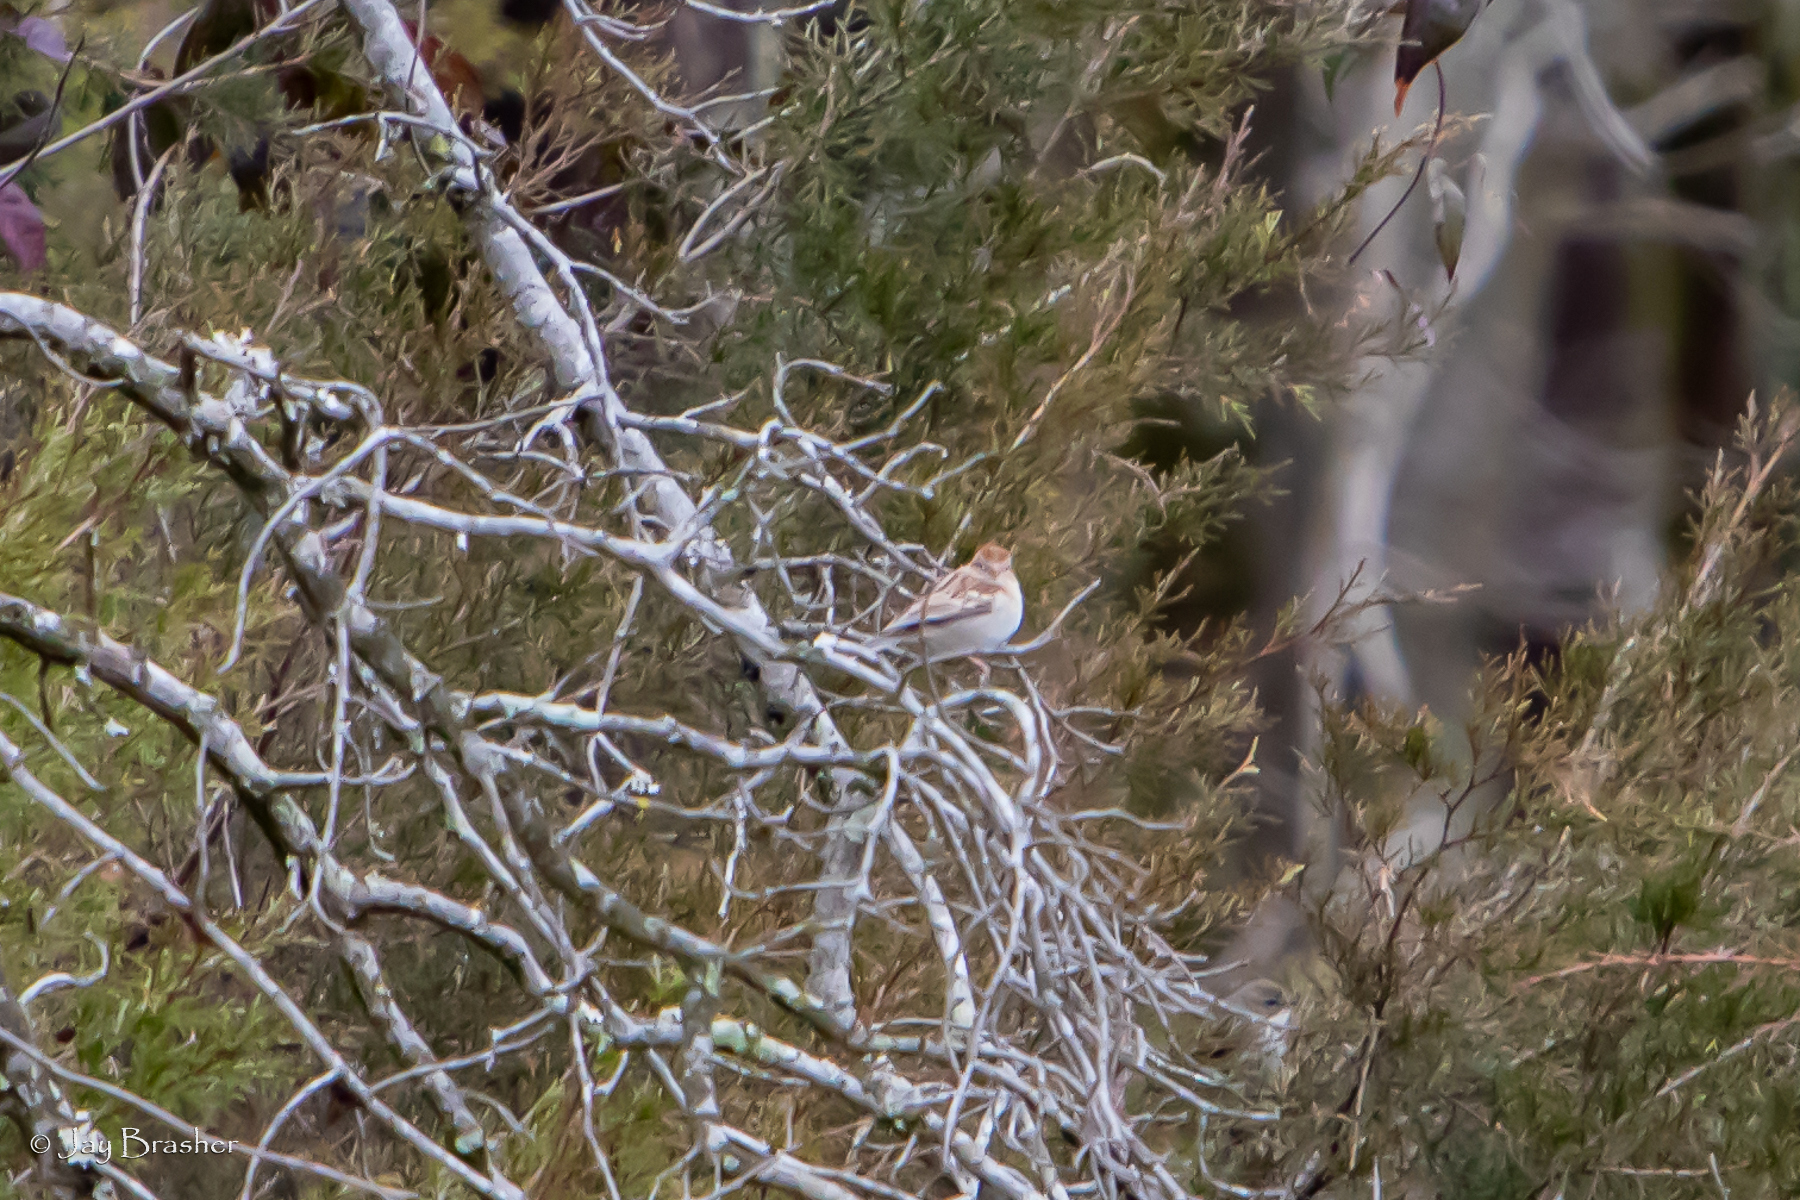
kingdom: Animalia
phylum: Chordata
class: Aves
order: Passeriformes
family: Passerellidae
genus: Spizella
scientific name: Spizella pusilla
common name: Field sparrow
